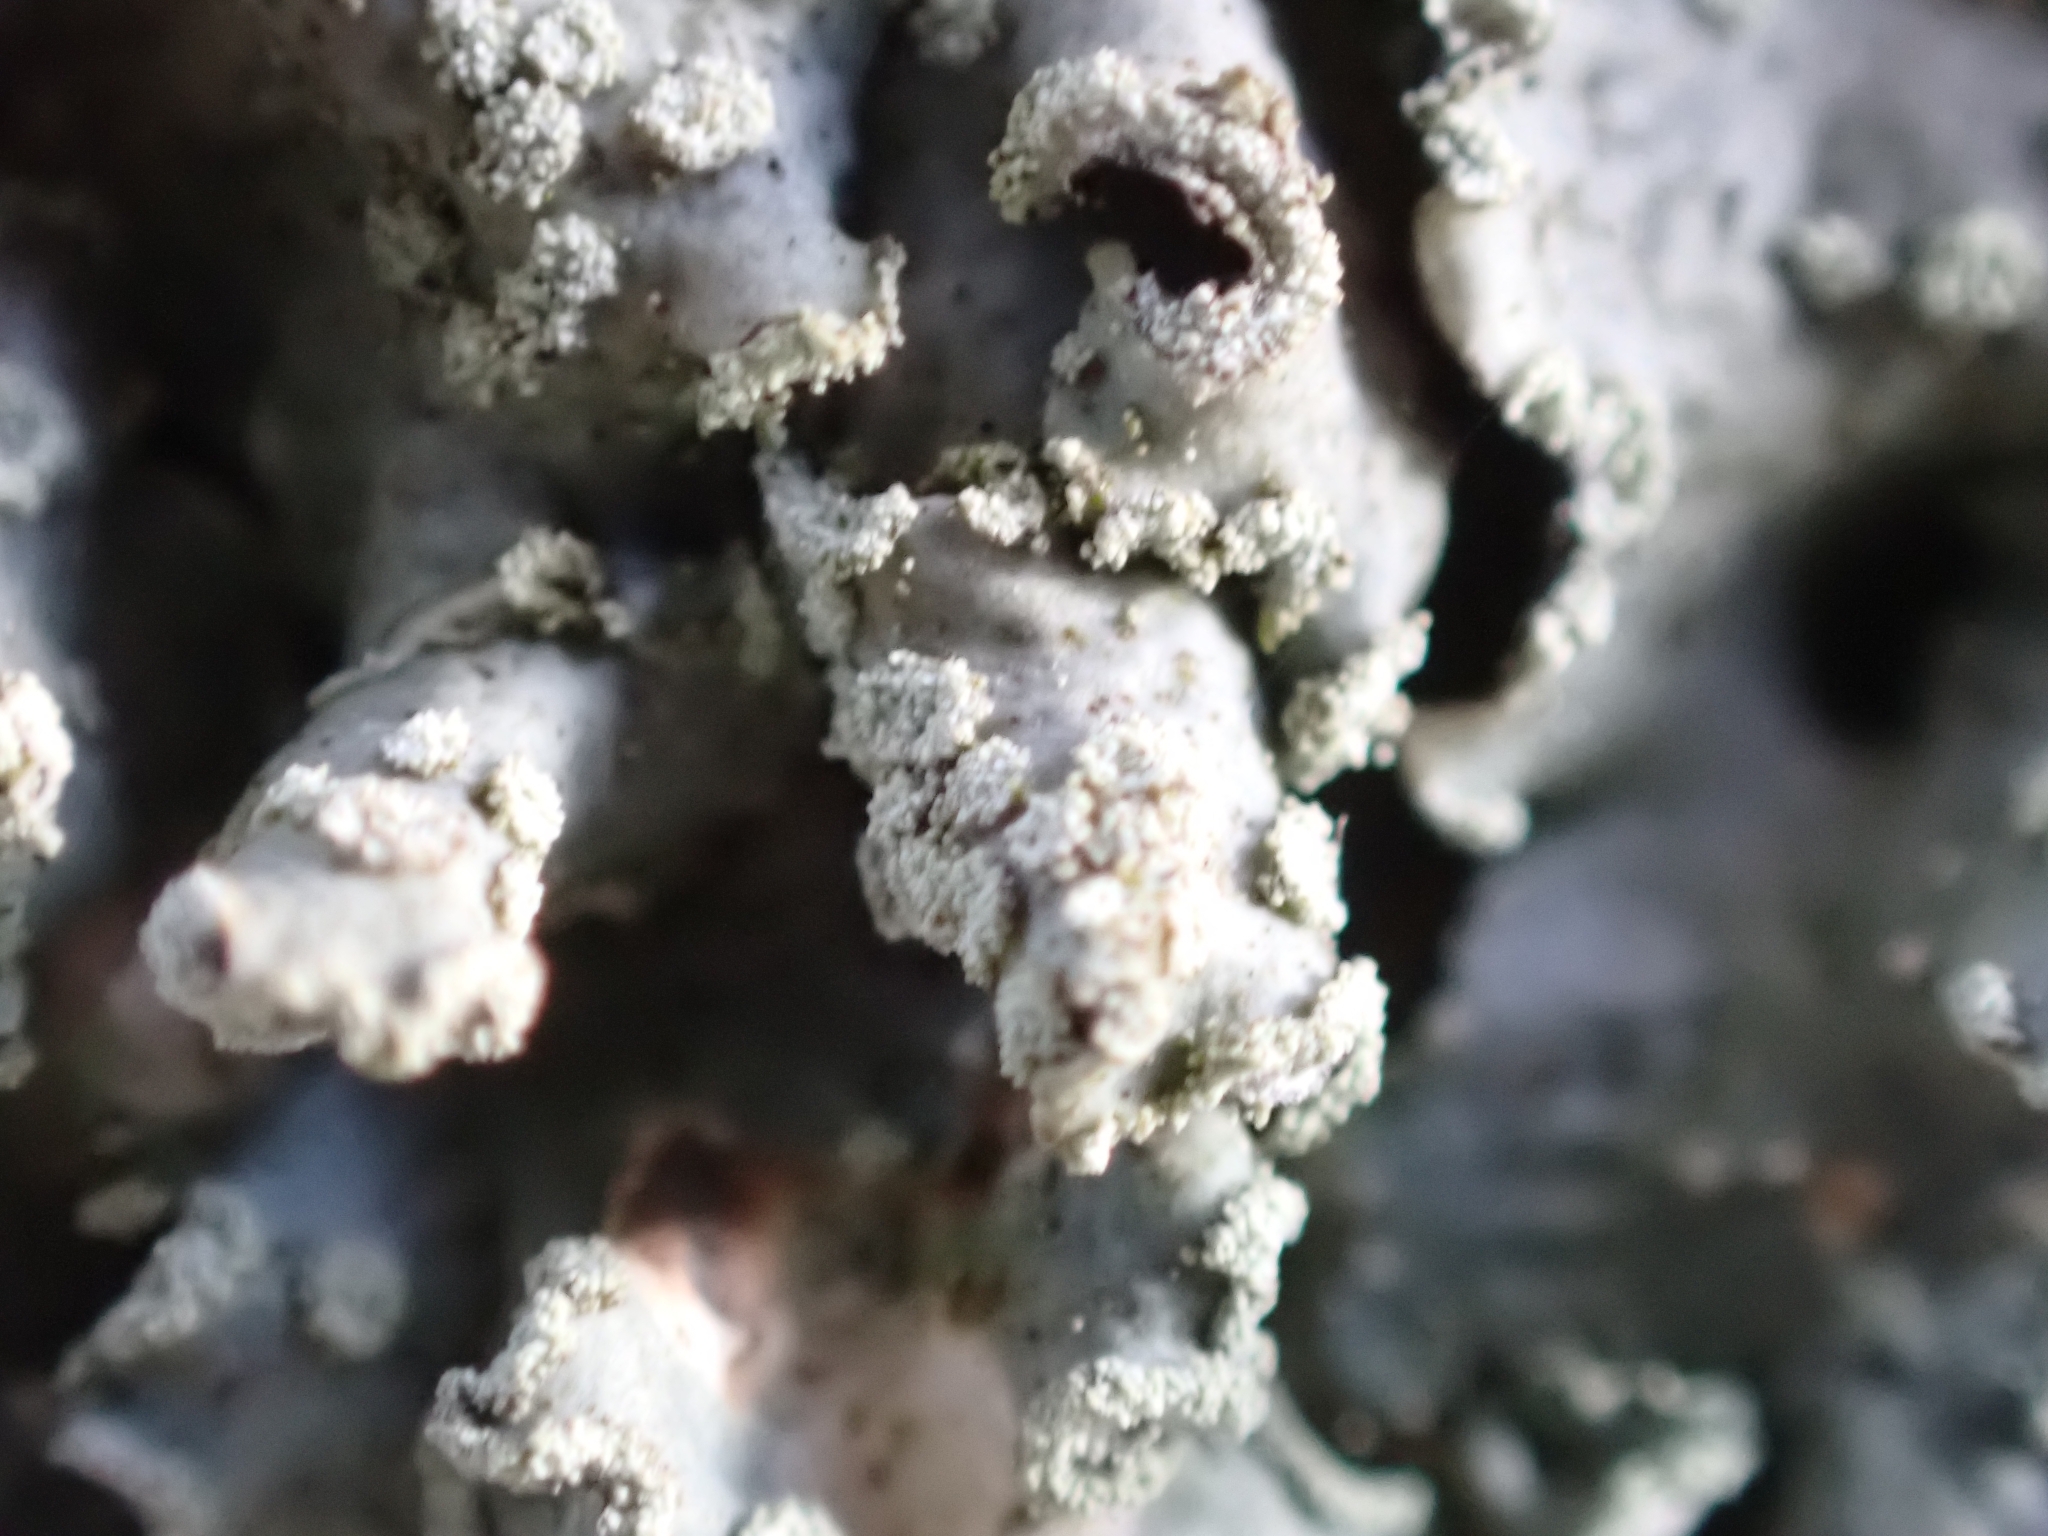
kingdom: Fungi
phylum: Ascomycota
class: Lecanoromycetes
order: Lecanorales
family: Parmeliaceae
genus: Punctelia
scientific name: Punctelia jeckeri
